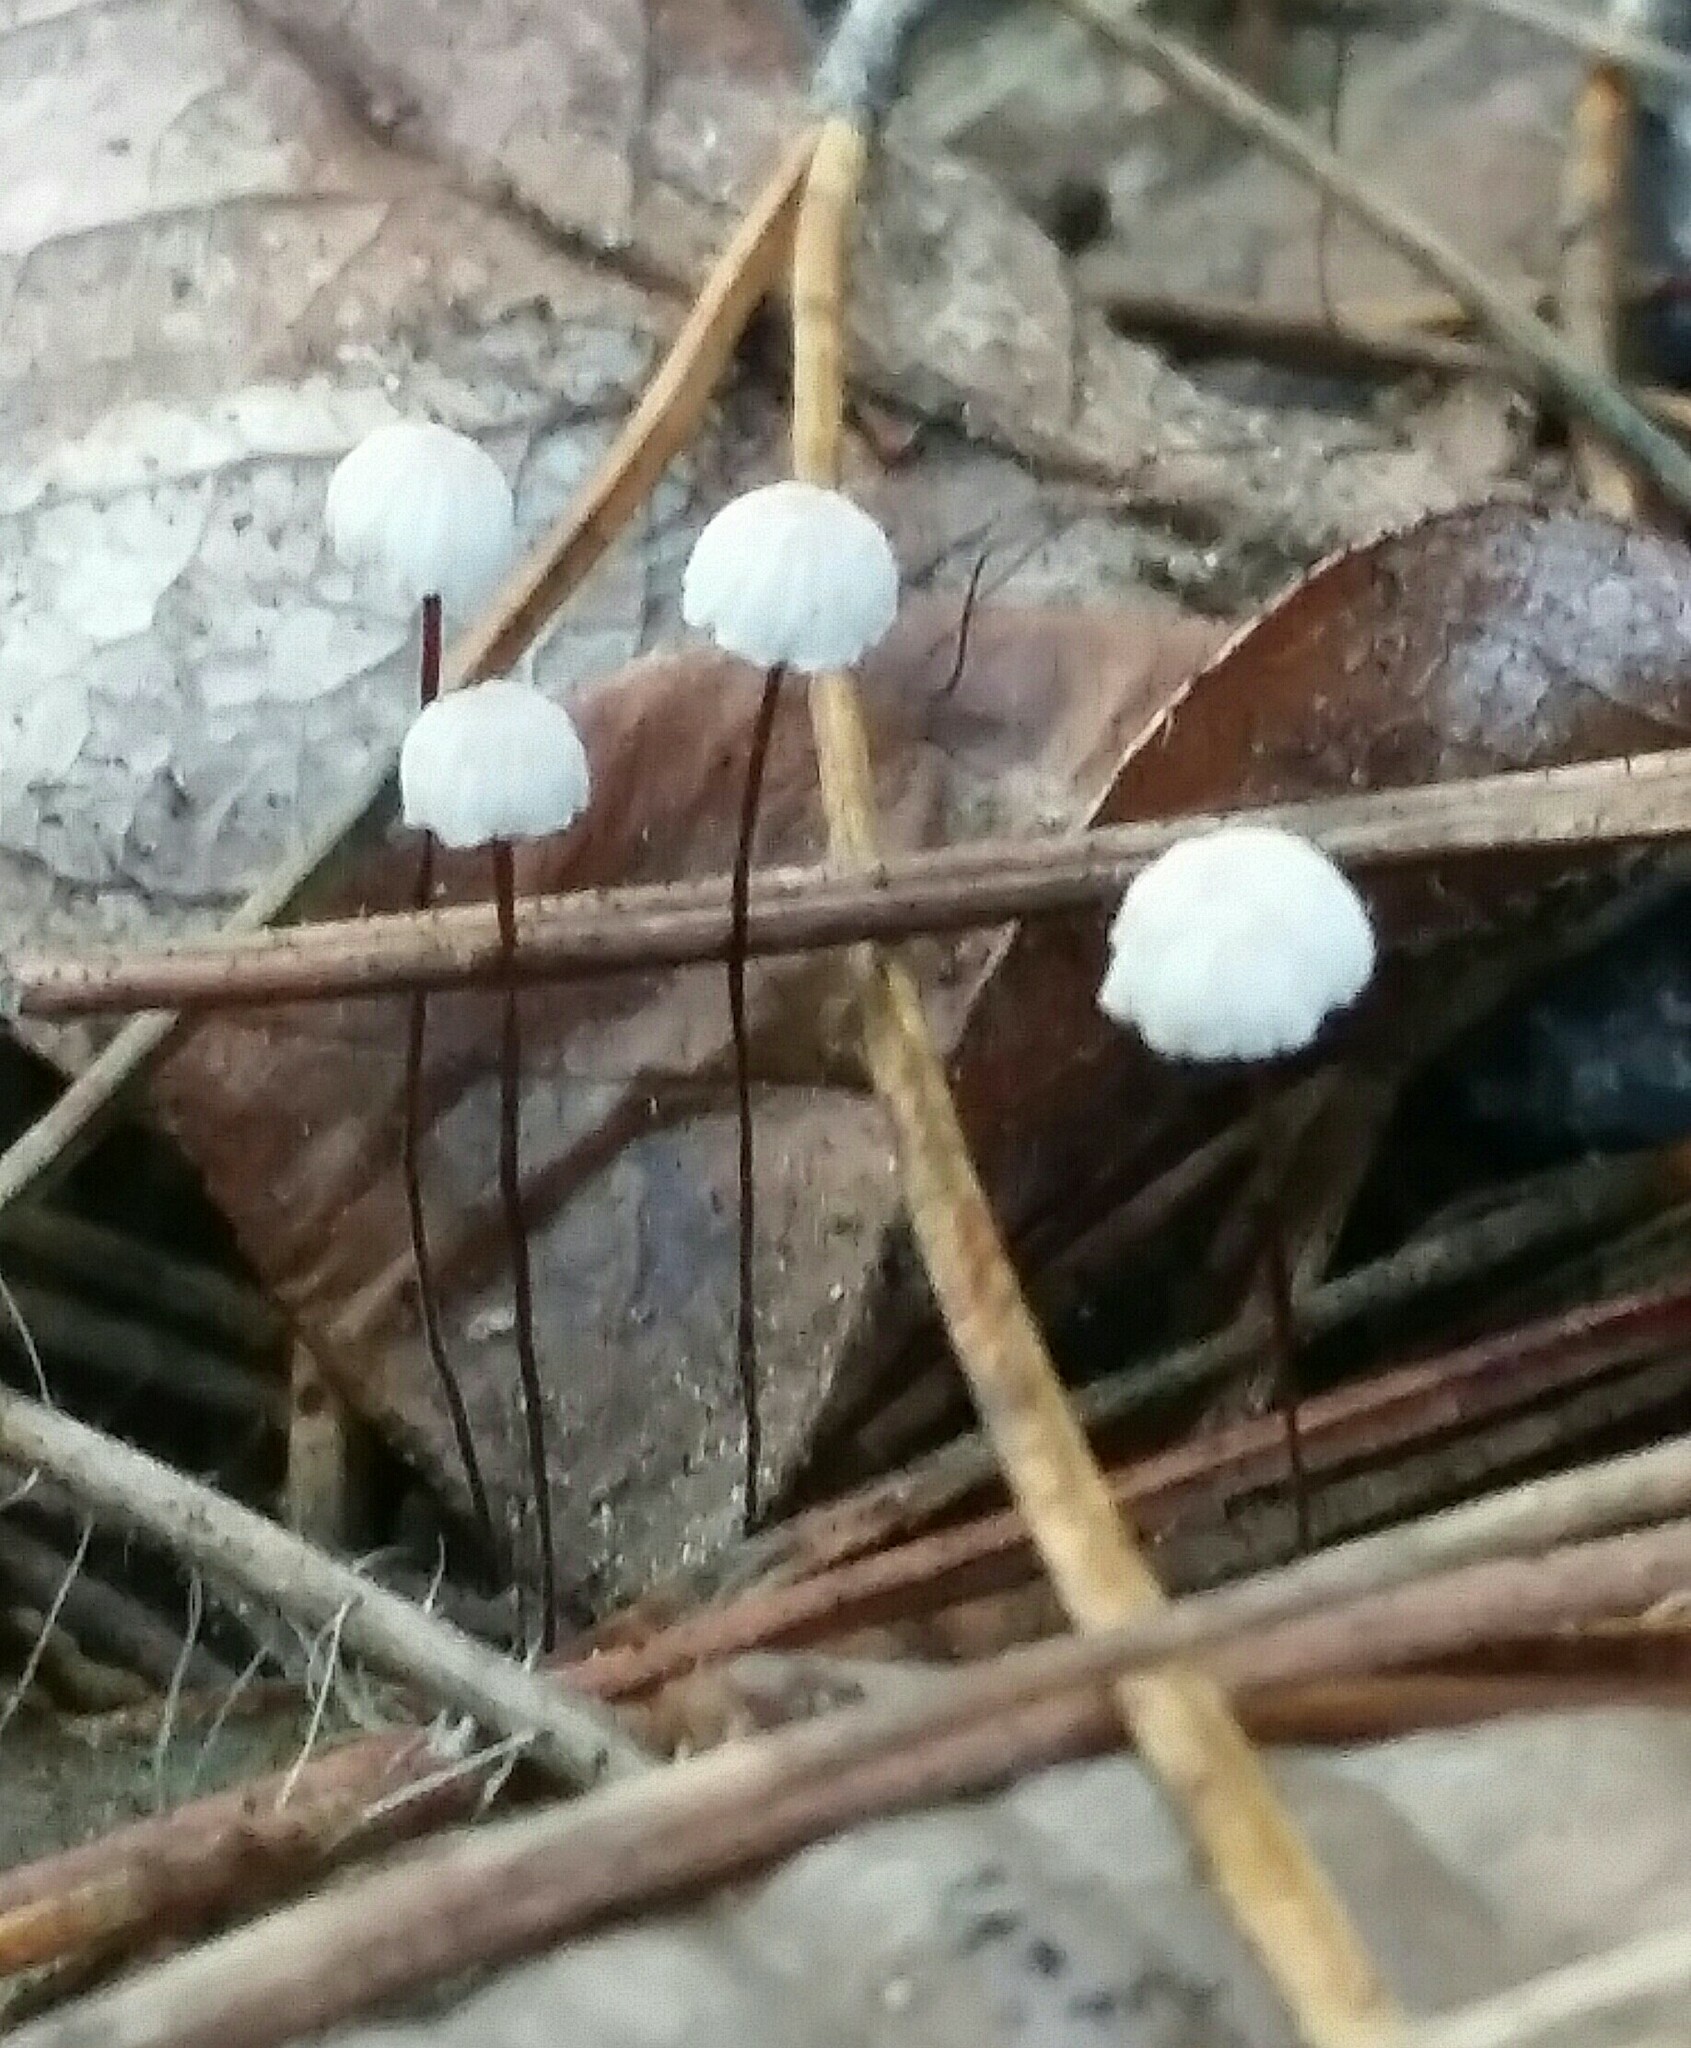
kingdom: Fungi
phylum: Basidiomycota
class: Agaricomycetes
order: Agaricales
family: Omphalotaceae
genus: Collybiopsis
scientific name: Collybiopsis quercophila
